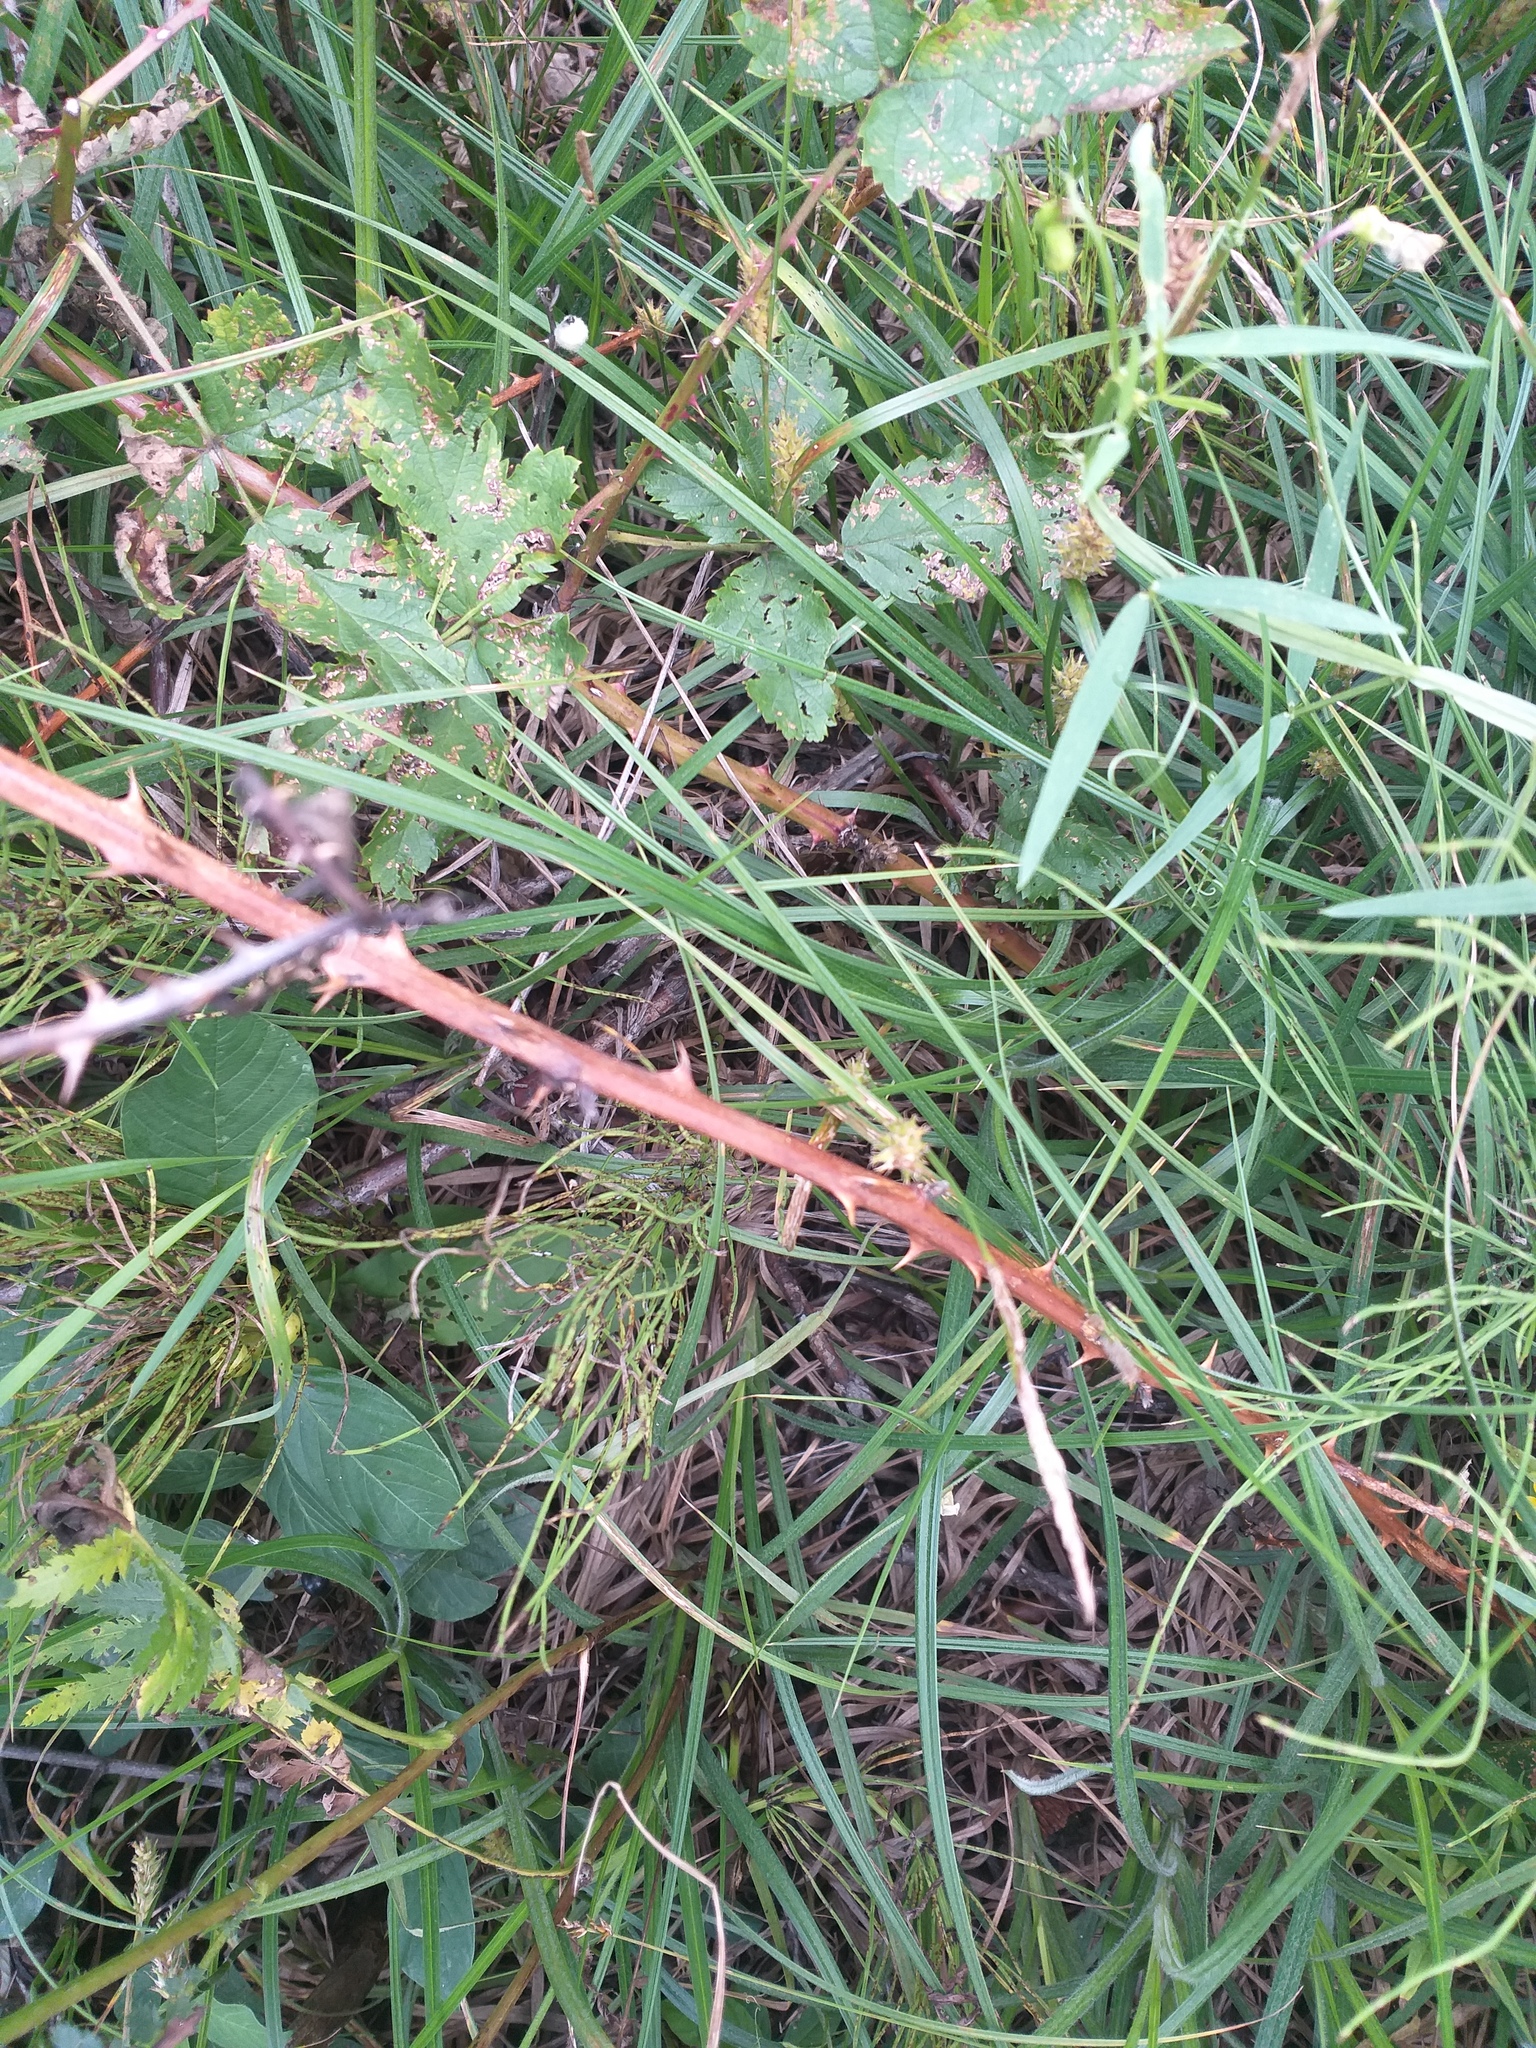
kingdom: Plantae
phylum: Tracheophyta
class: Magnoliopsida
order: Rosales
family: Rosaceae
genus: Rubus
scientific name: Rubus procerus
